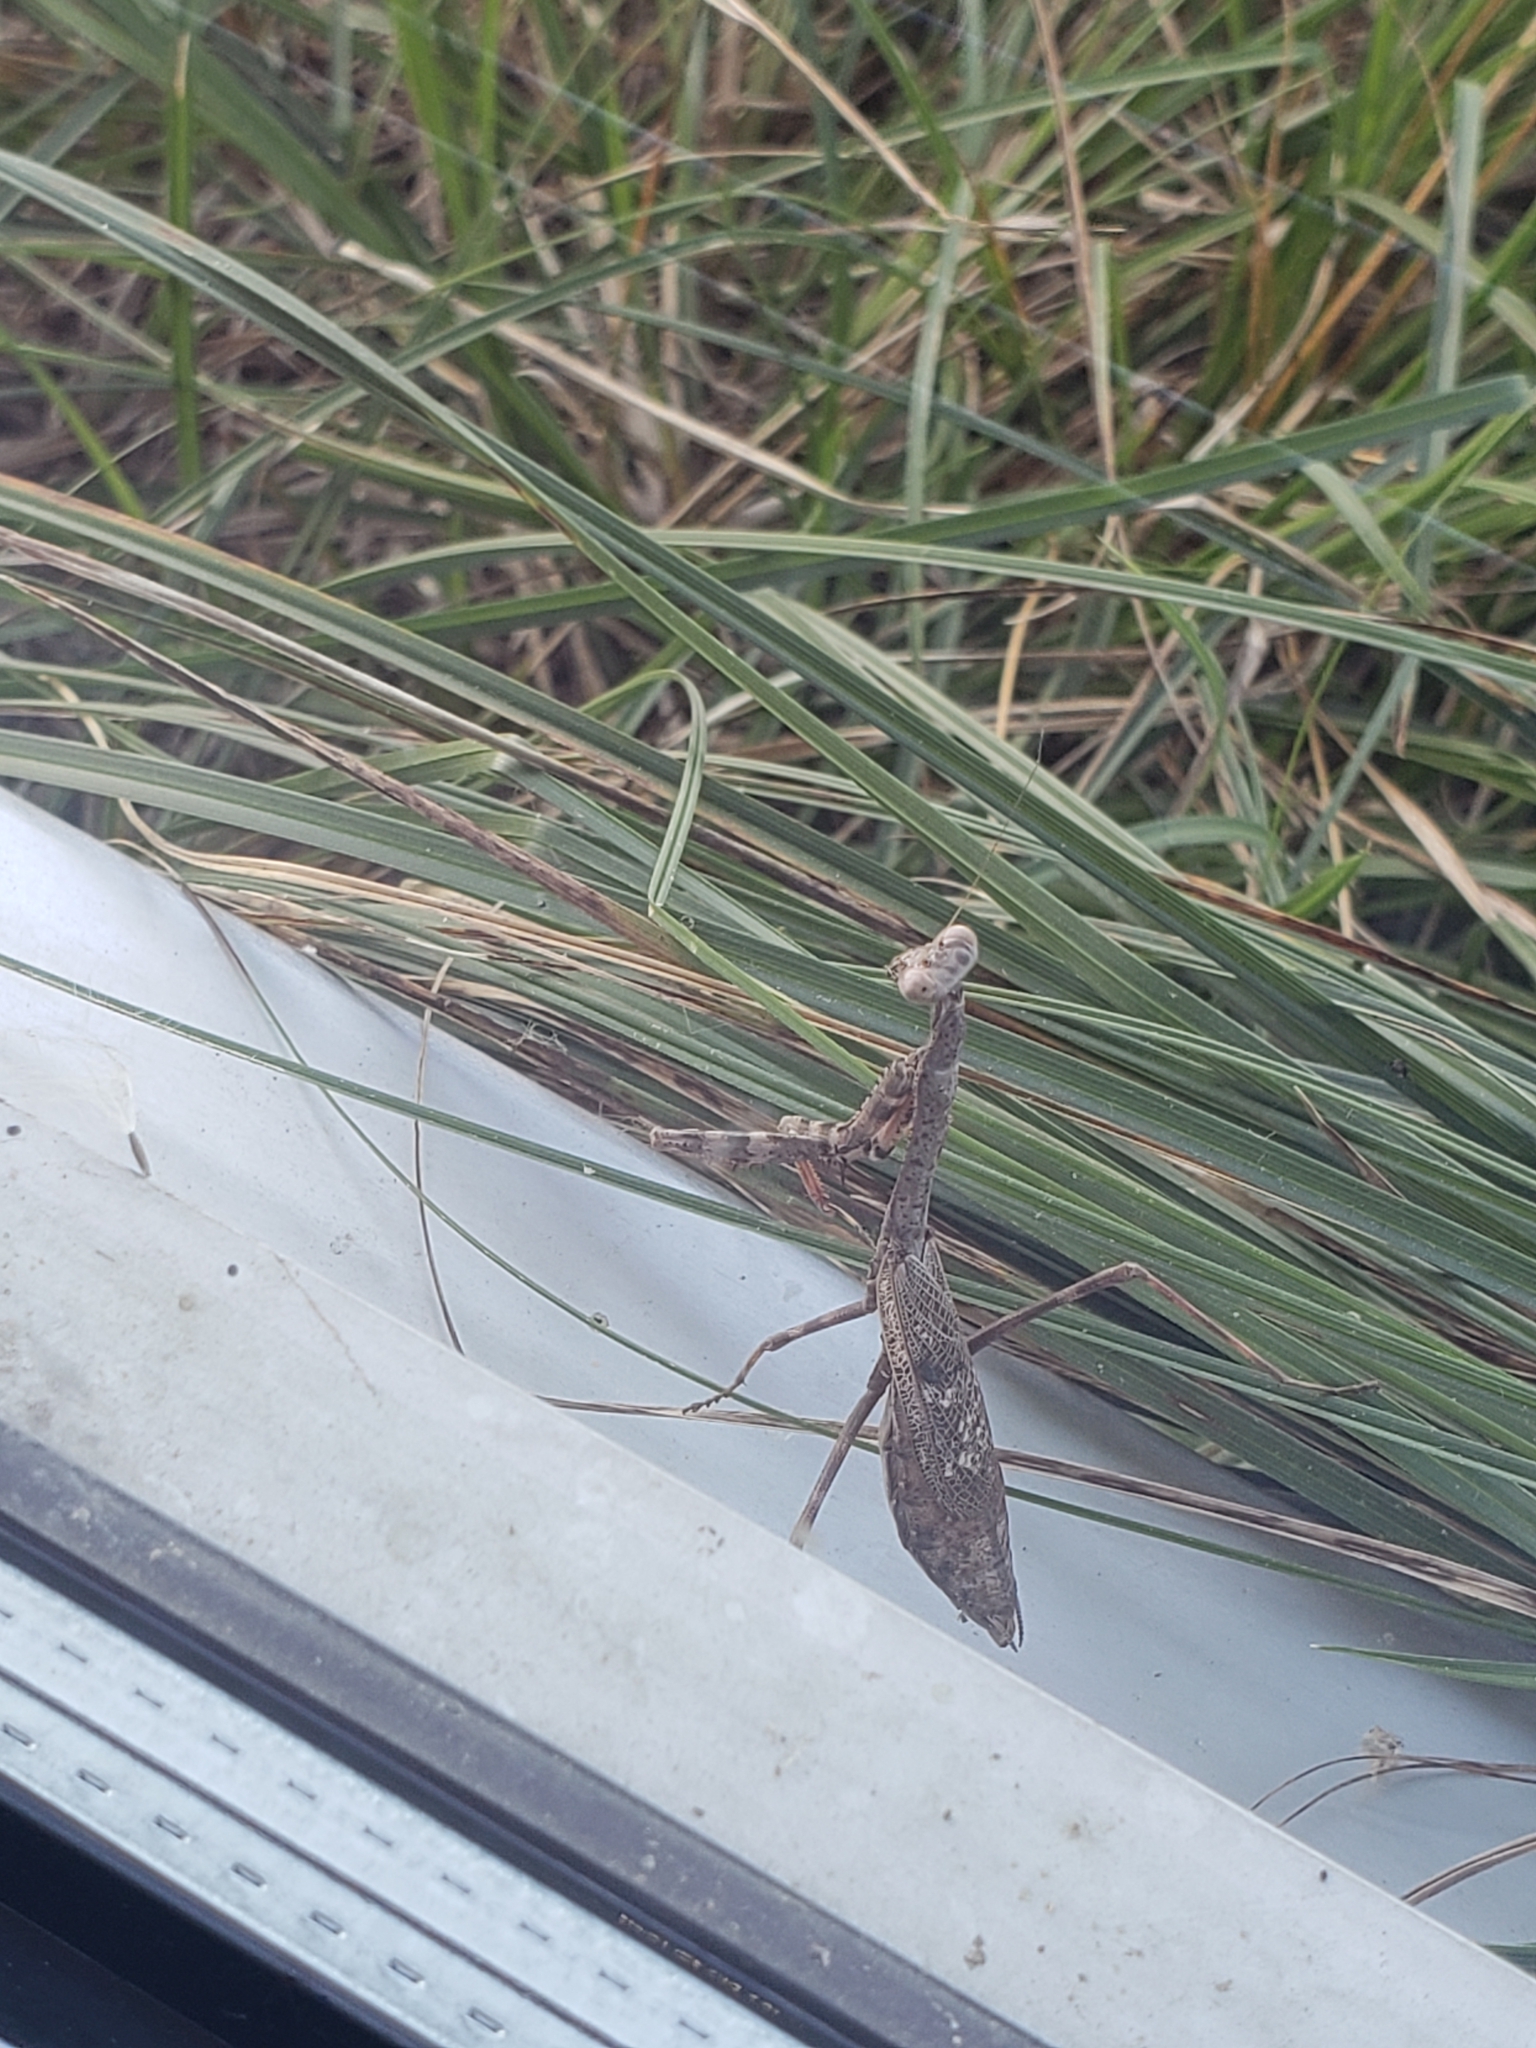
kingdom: Animalia
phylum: Arthropoda
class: Insecta
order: Mantodea
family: Mantidae
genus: Stagmomantis
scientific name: Stagmomantis carolina
